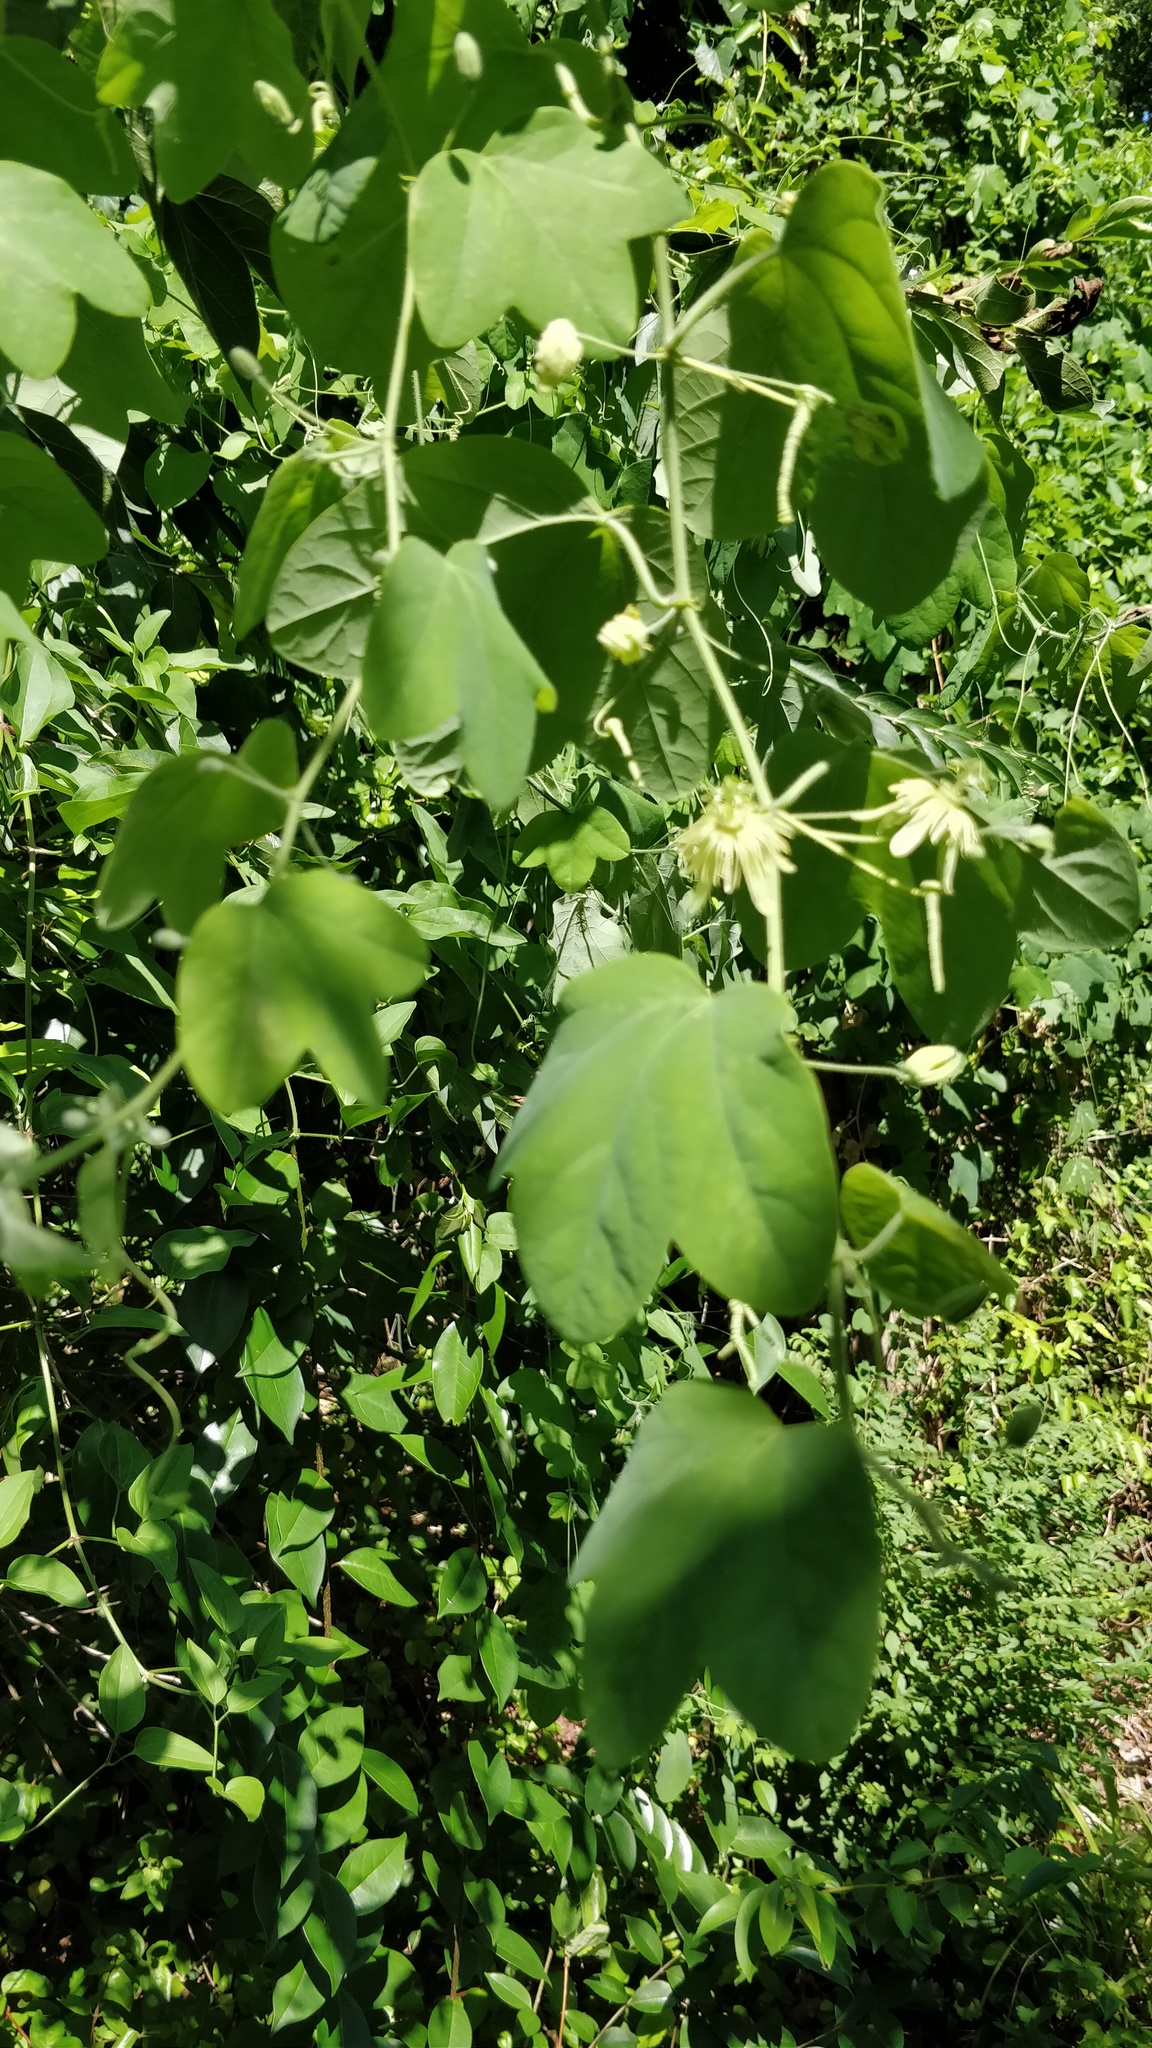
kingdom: Plantae
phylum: Tracheophyta
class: Magnoliopsida
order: Malpighiales
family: Passifloraceae
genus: Passiflora
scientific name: Passiflora lutea
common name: Yellow passionflower
